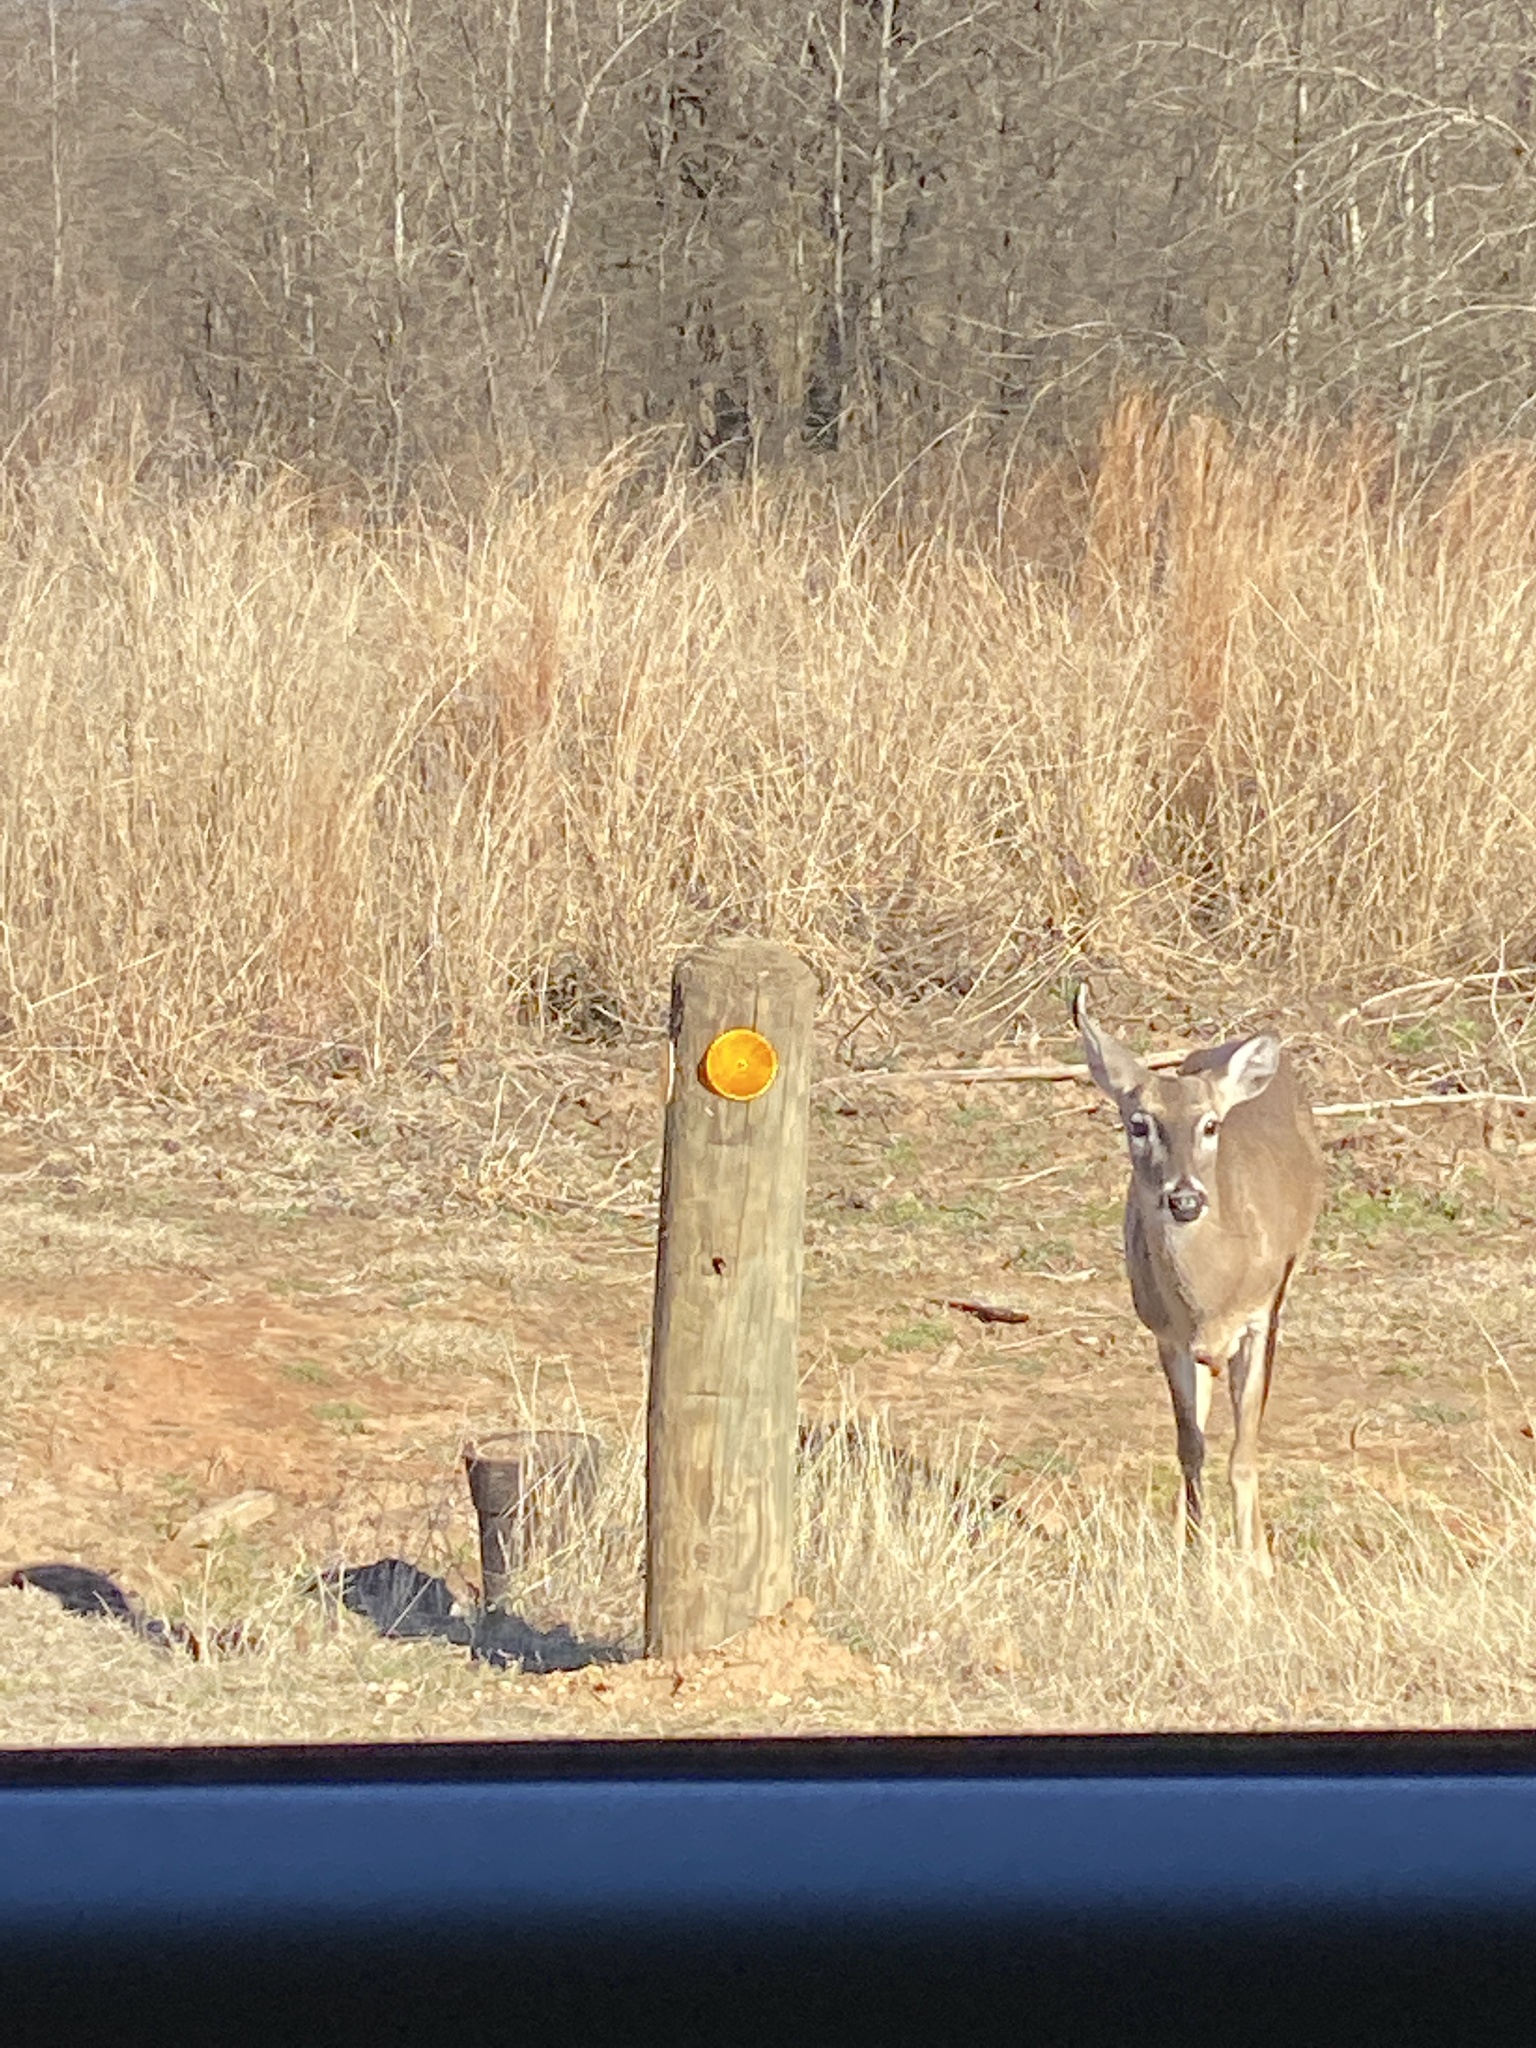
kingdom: Animalia
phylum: Chordata
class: Mammalia
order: Artiodactyla
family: Cervidae
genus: Odocoileus
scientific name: Odocoileus virginianus
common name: White-tailed deer
